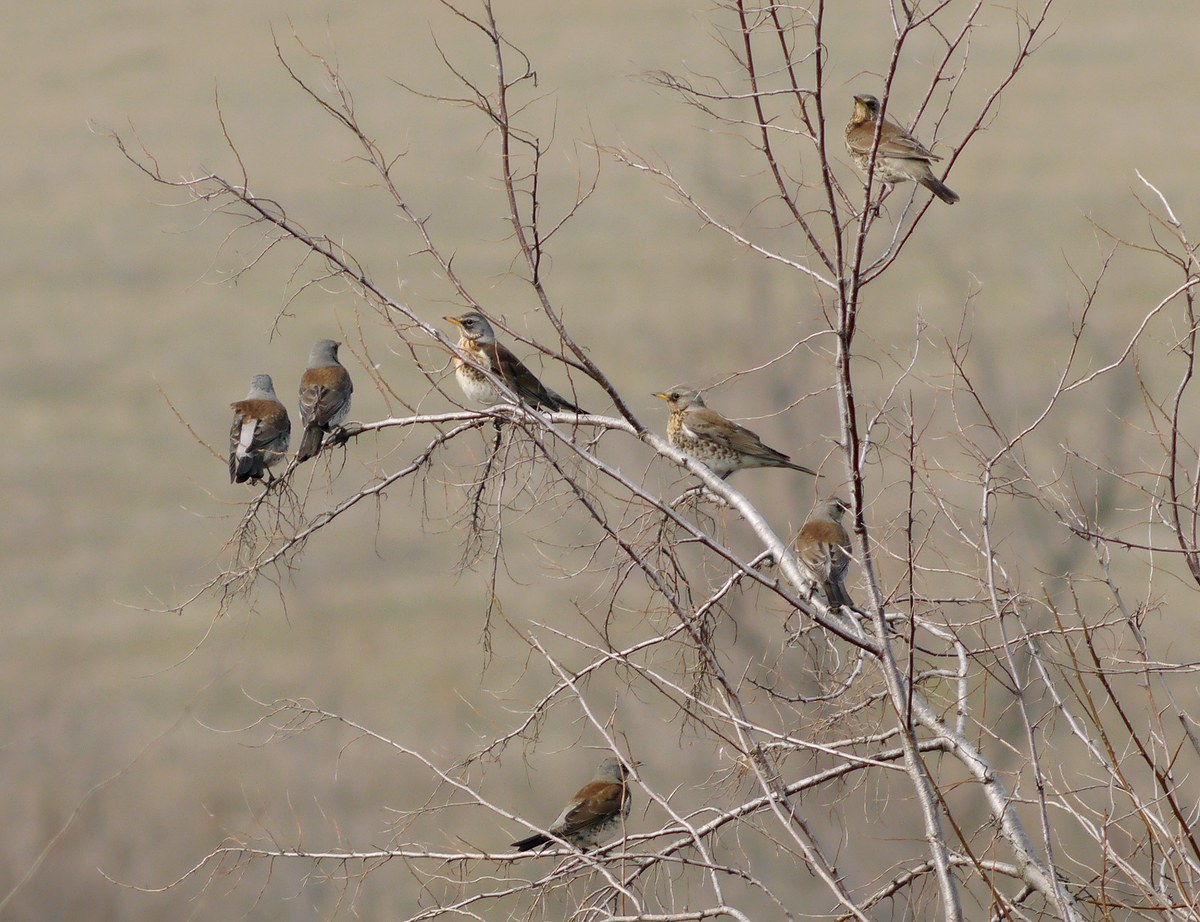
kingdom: Animalia
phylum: Chordata
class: Aves
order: Passeriformes
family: Turdidae
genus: Turdus
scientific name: Turdus pilaris
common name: Fieldfare
